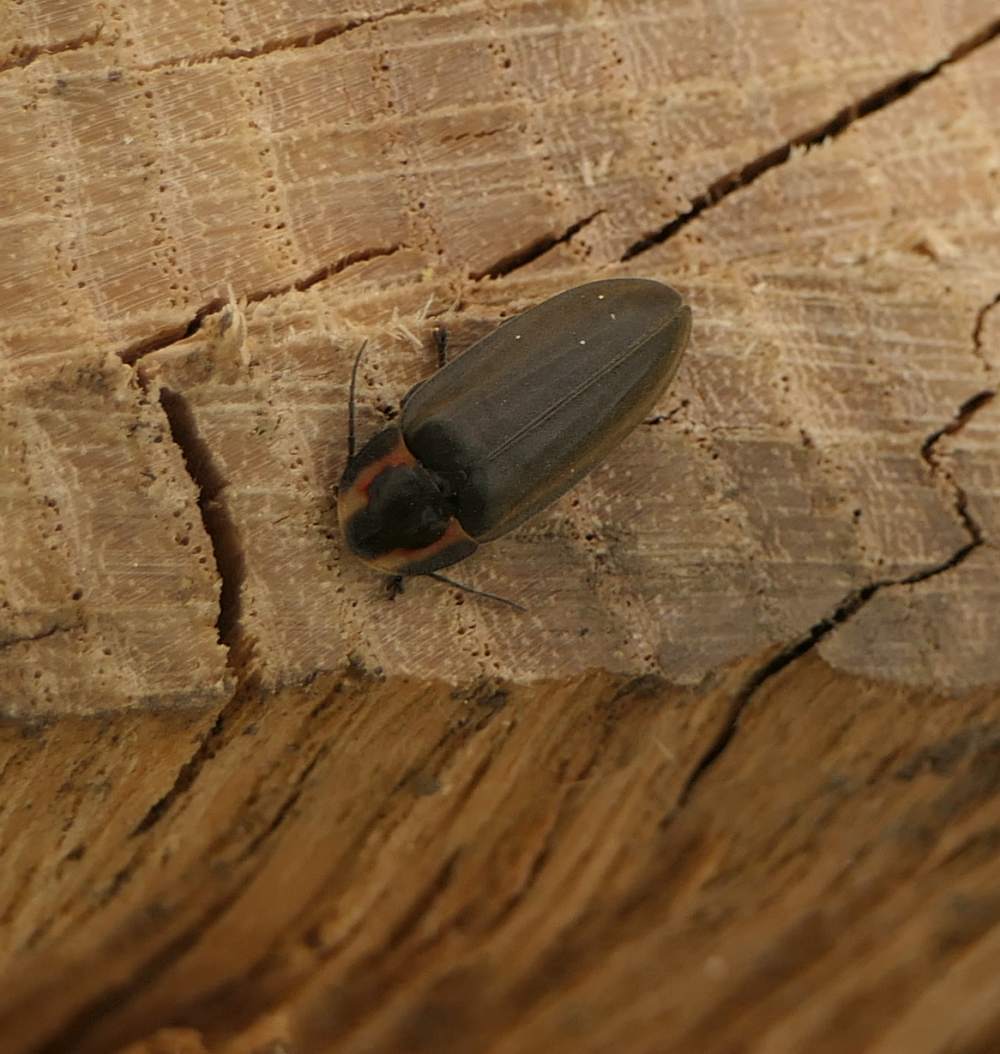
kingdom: Animalia
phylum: Arthropoda
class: Insecta
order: Coleoptera
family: Lampyridae
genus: Photinus
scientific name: Photinus corrusca
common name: Winter firefly
